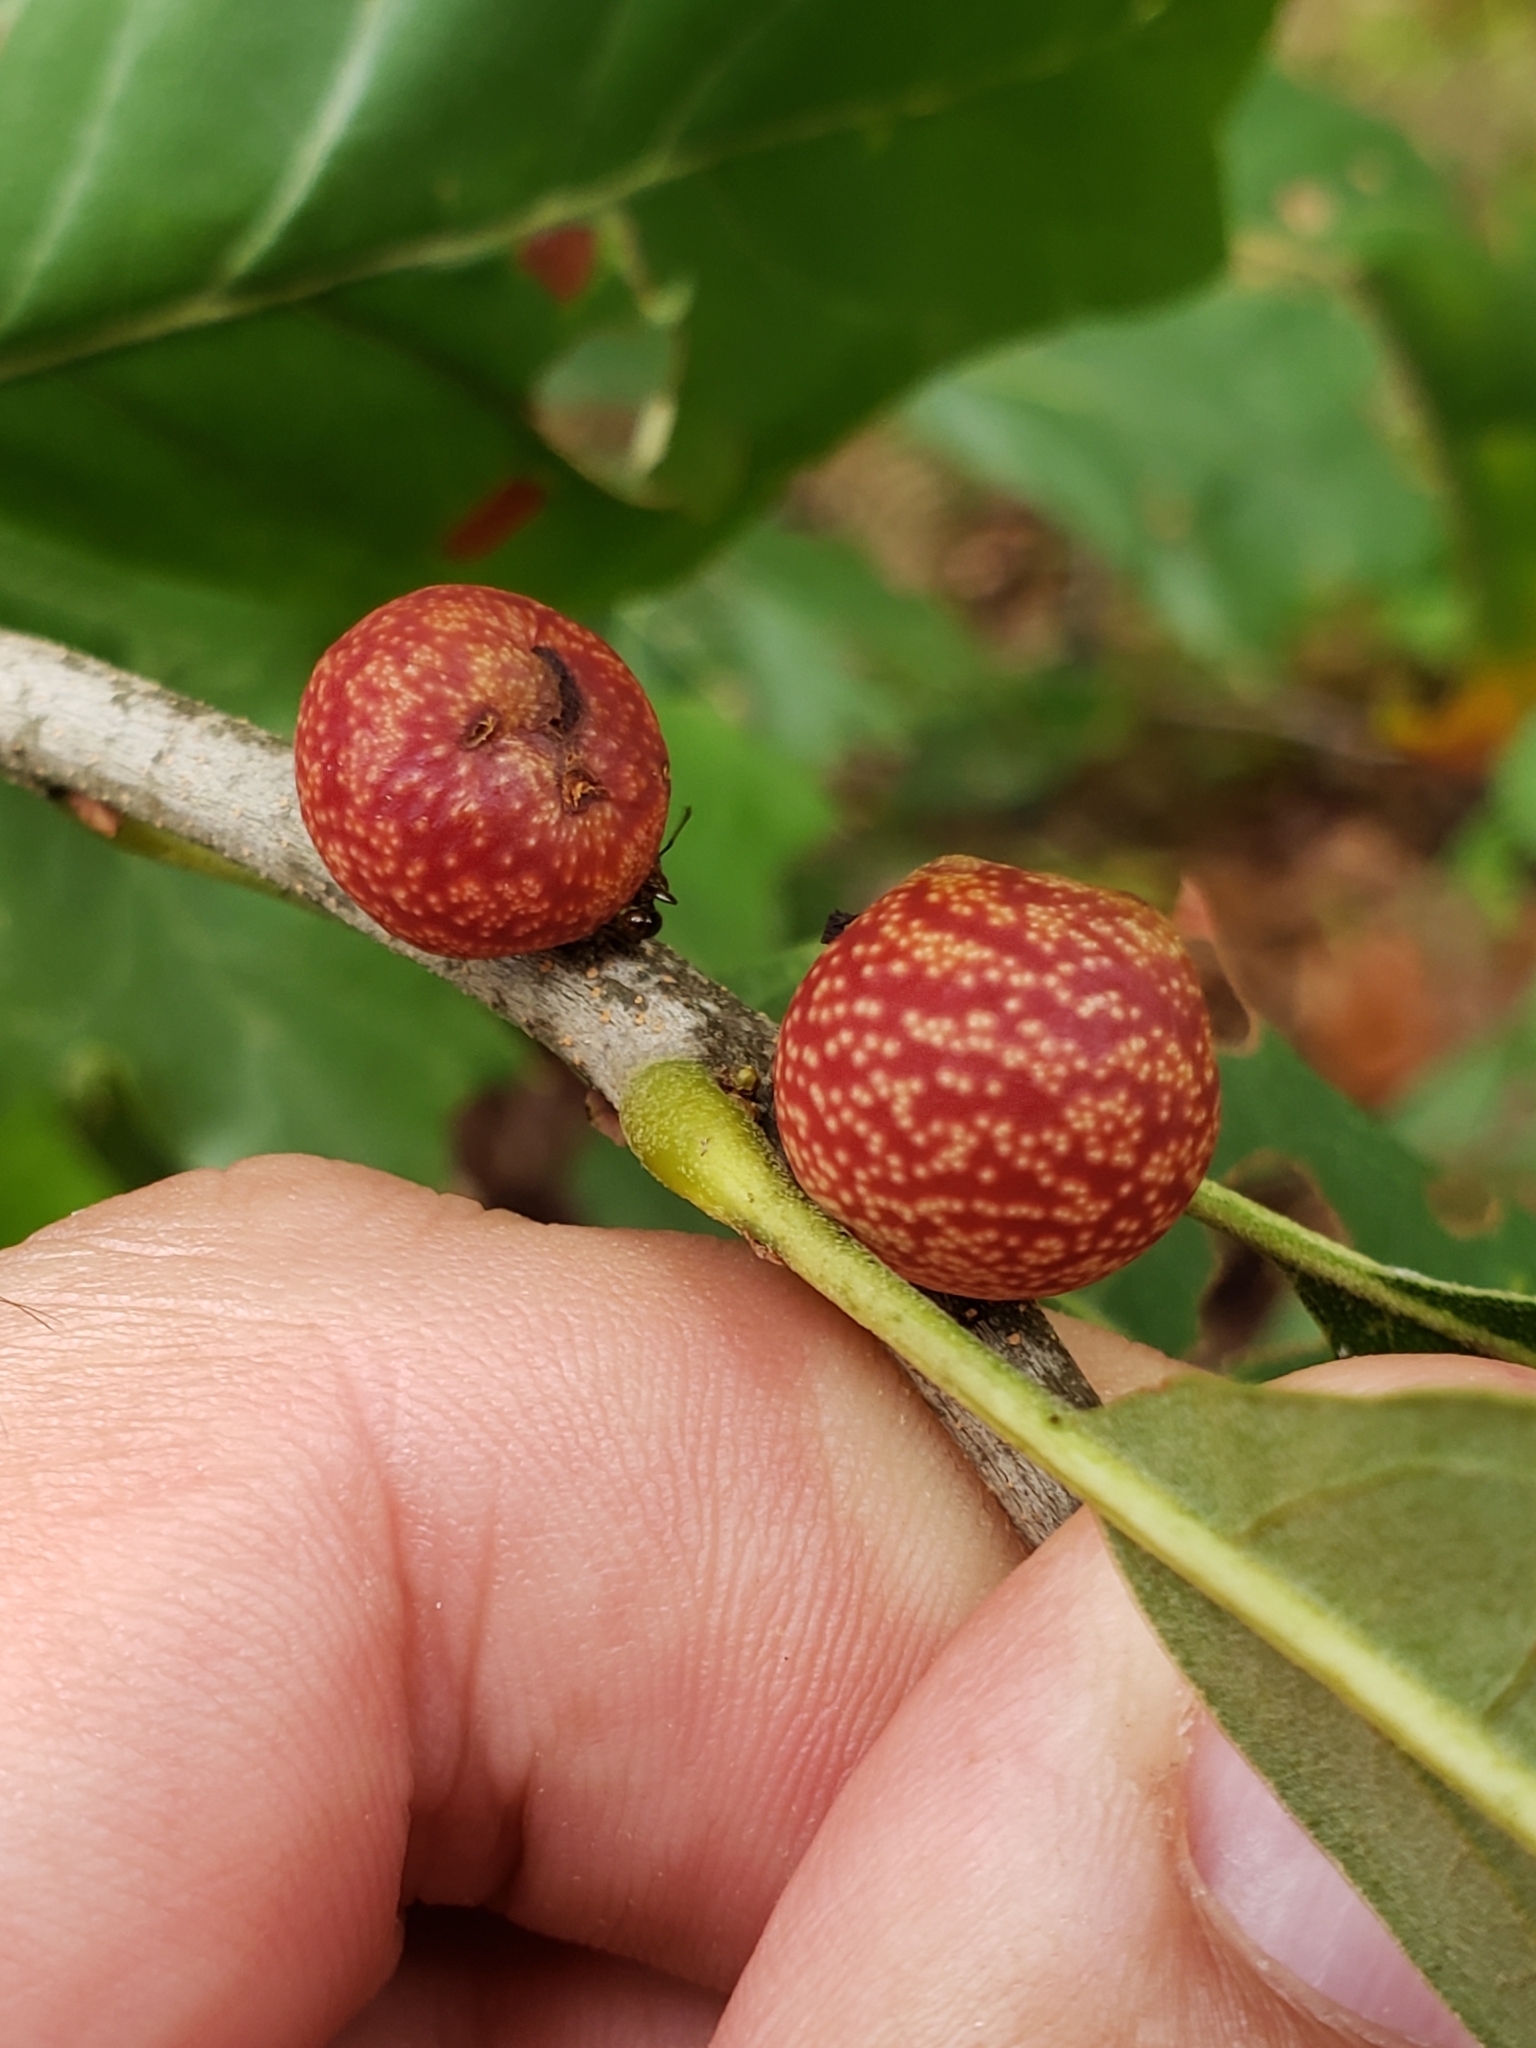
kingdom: Animalia
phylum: Arthropoda
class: Insecta
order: Hymenoptera
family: Cynipidae
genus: Kokkocynips
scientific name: Kokkocynips imbricariae
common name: Banded bullet gall wasp
